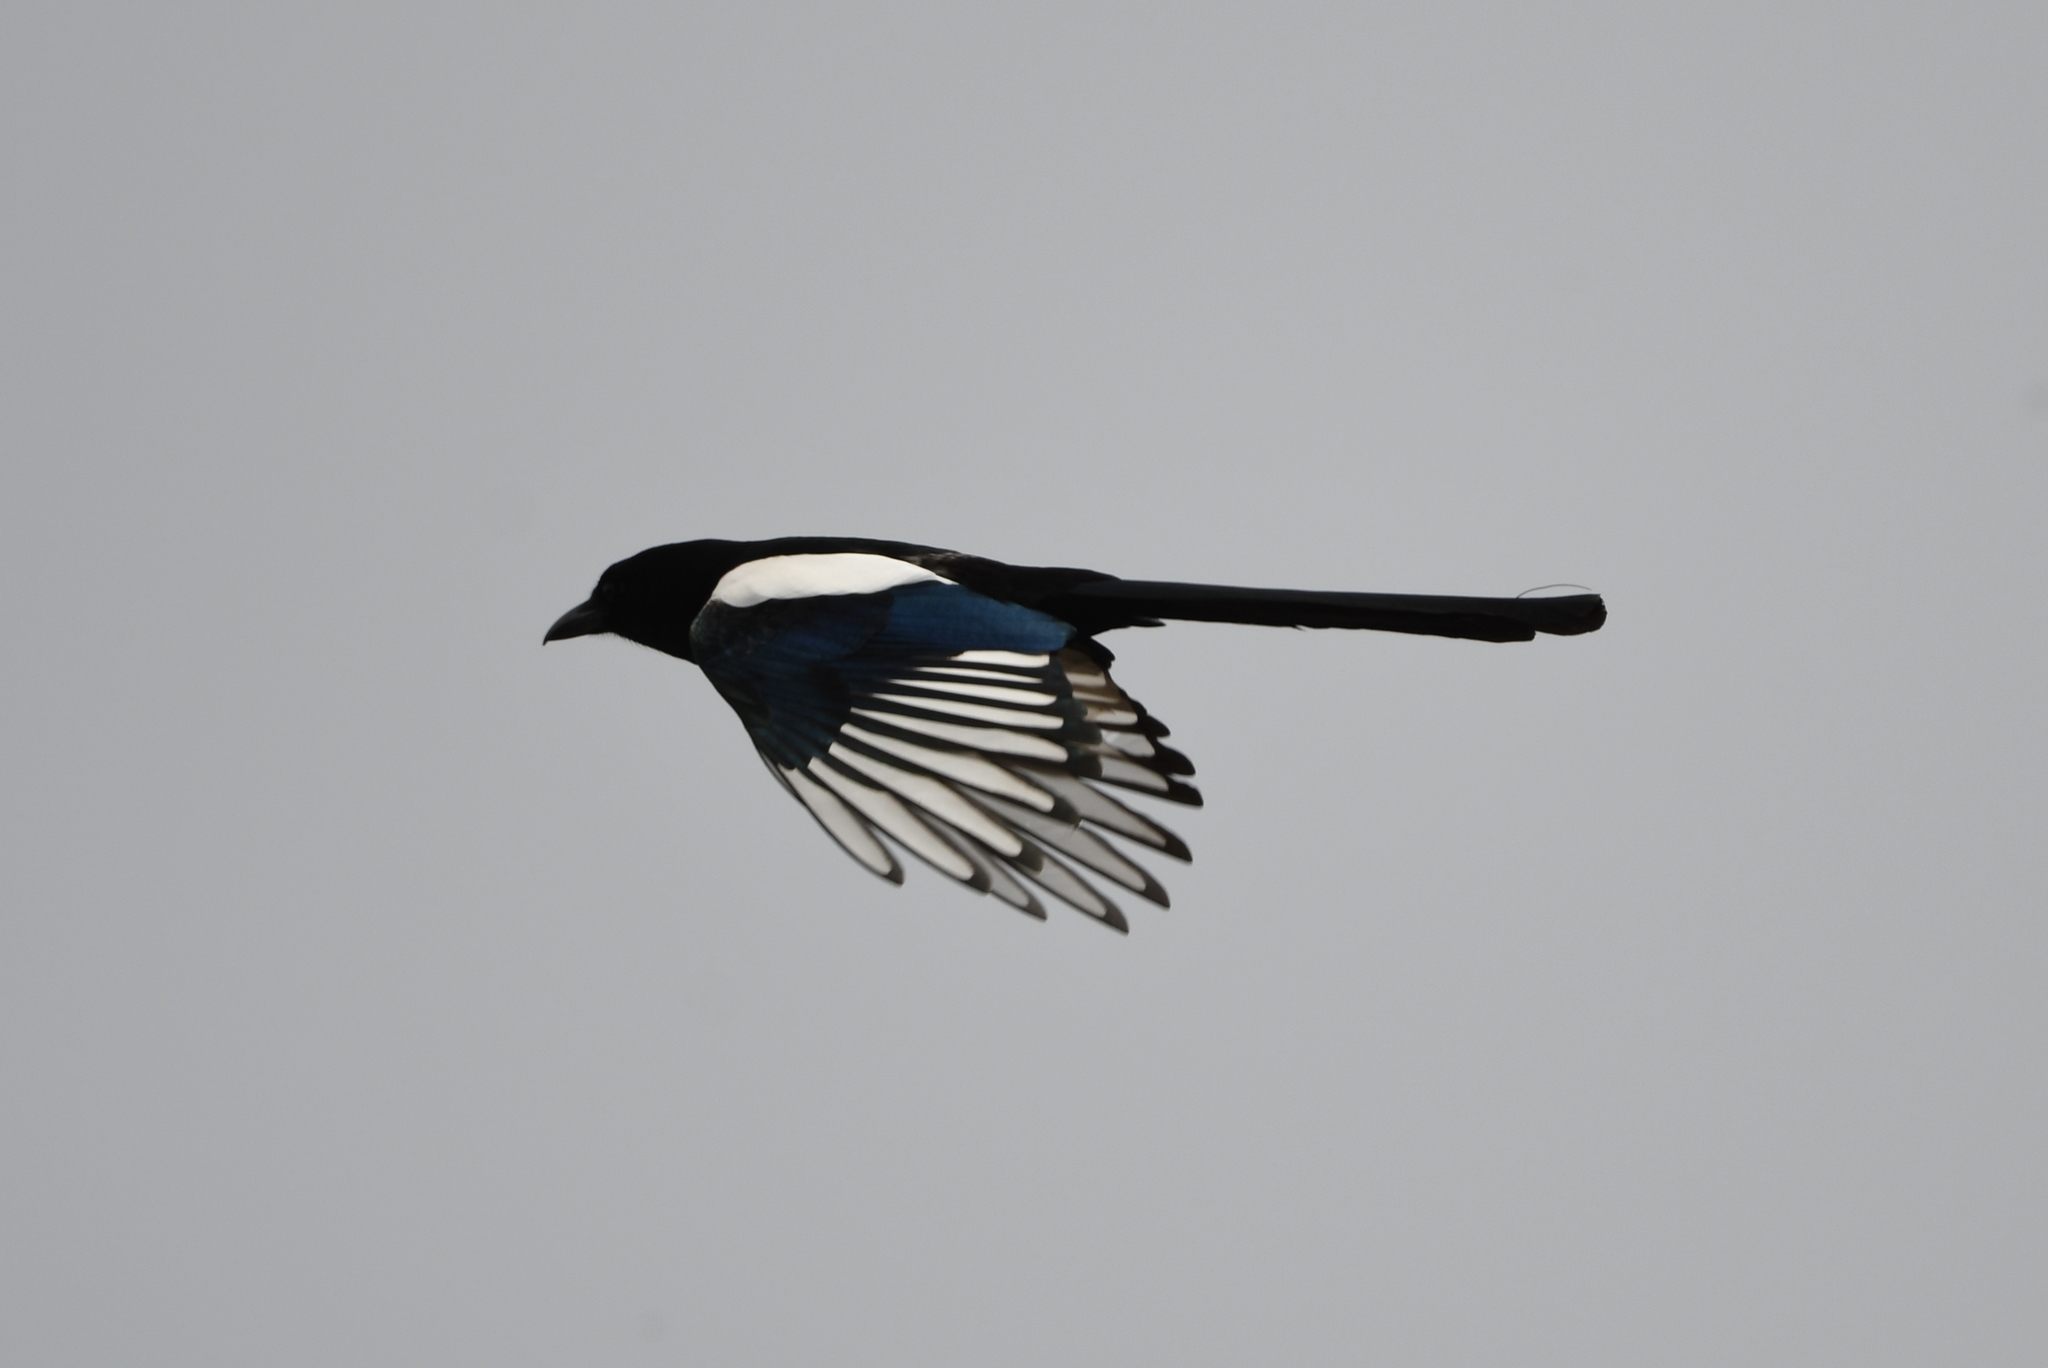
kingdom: Animalia
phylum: Chordata
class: Aves
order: Passeriformes
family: Corvidae
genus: Pica
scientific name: Pica pica
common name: Eurasian magpie
